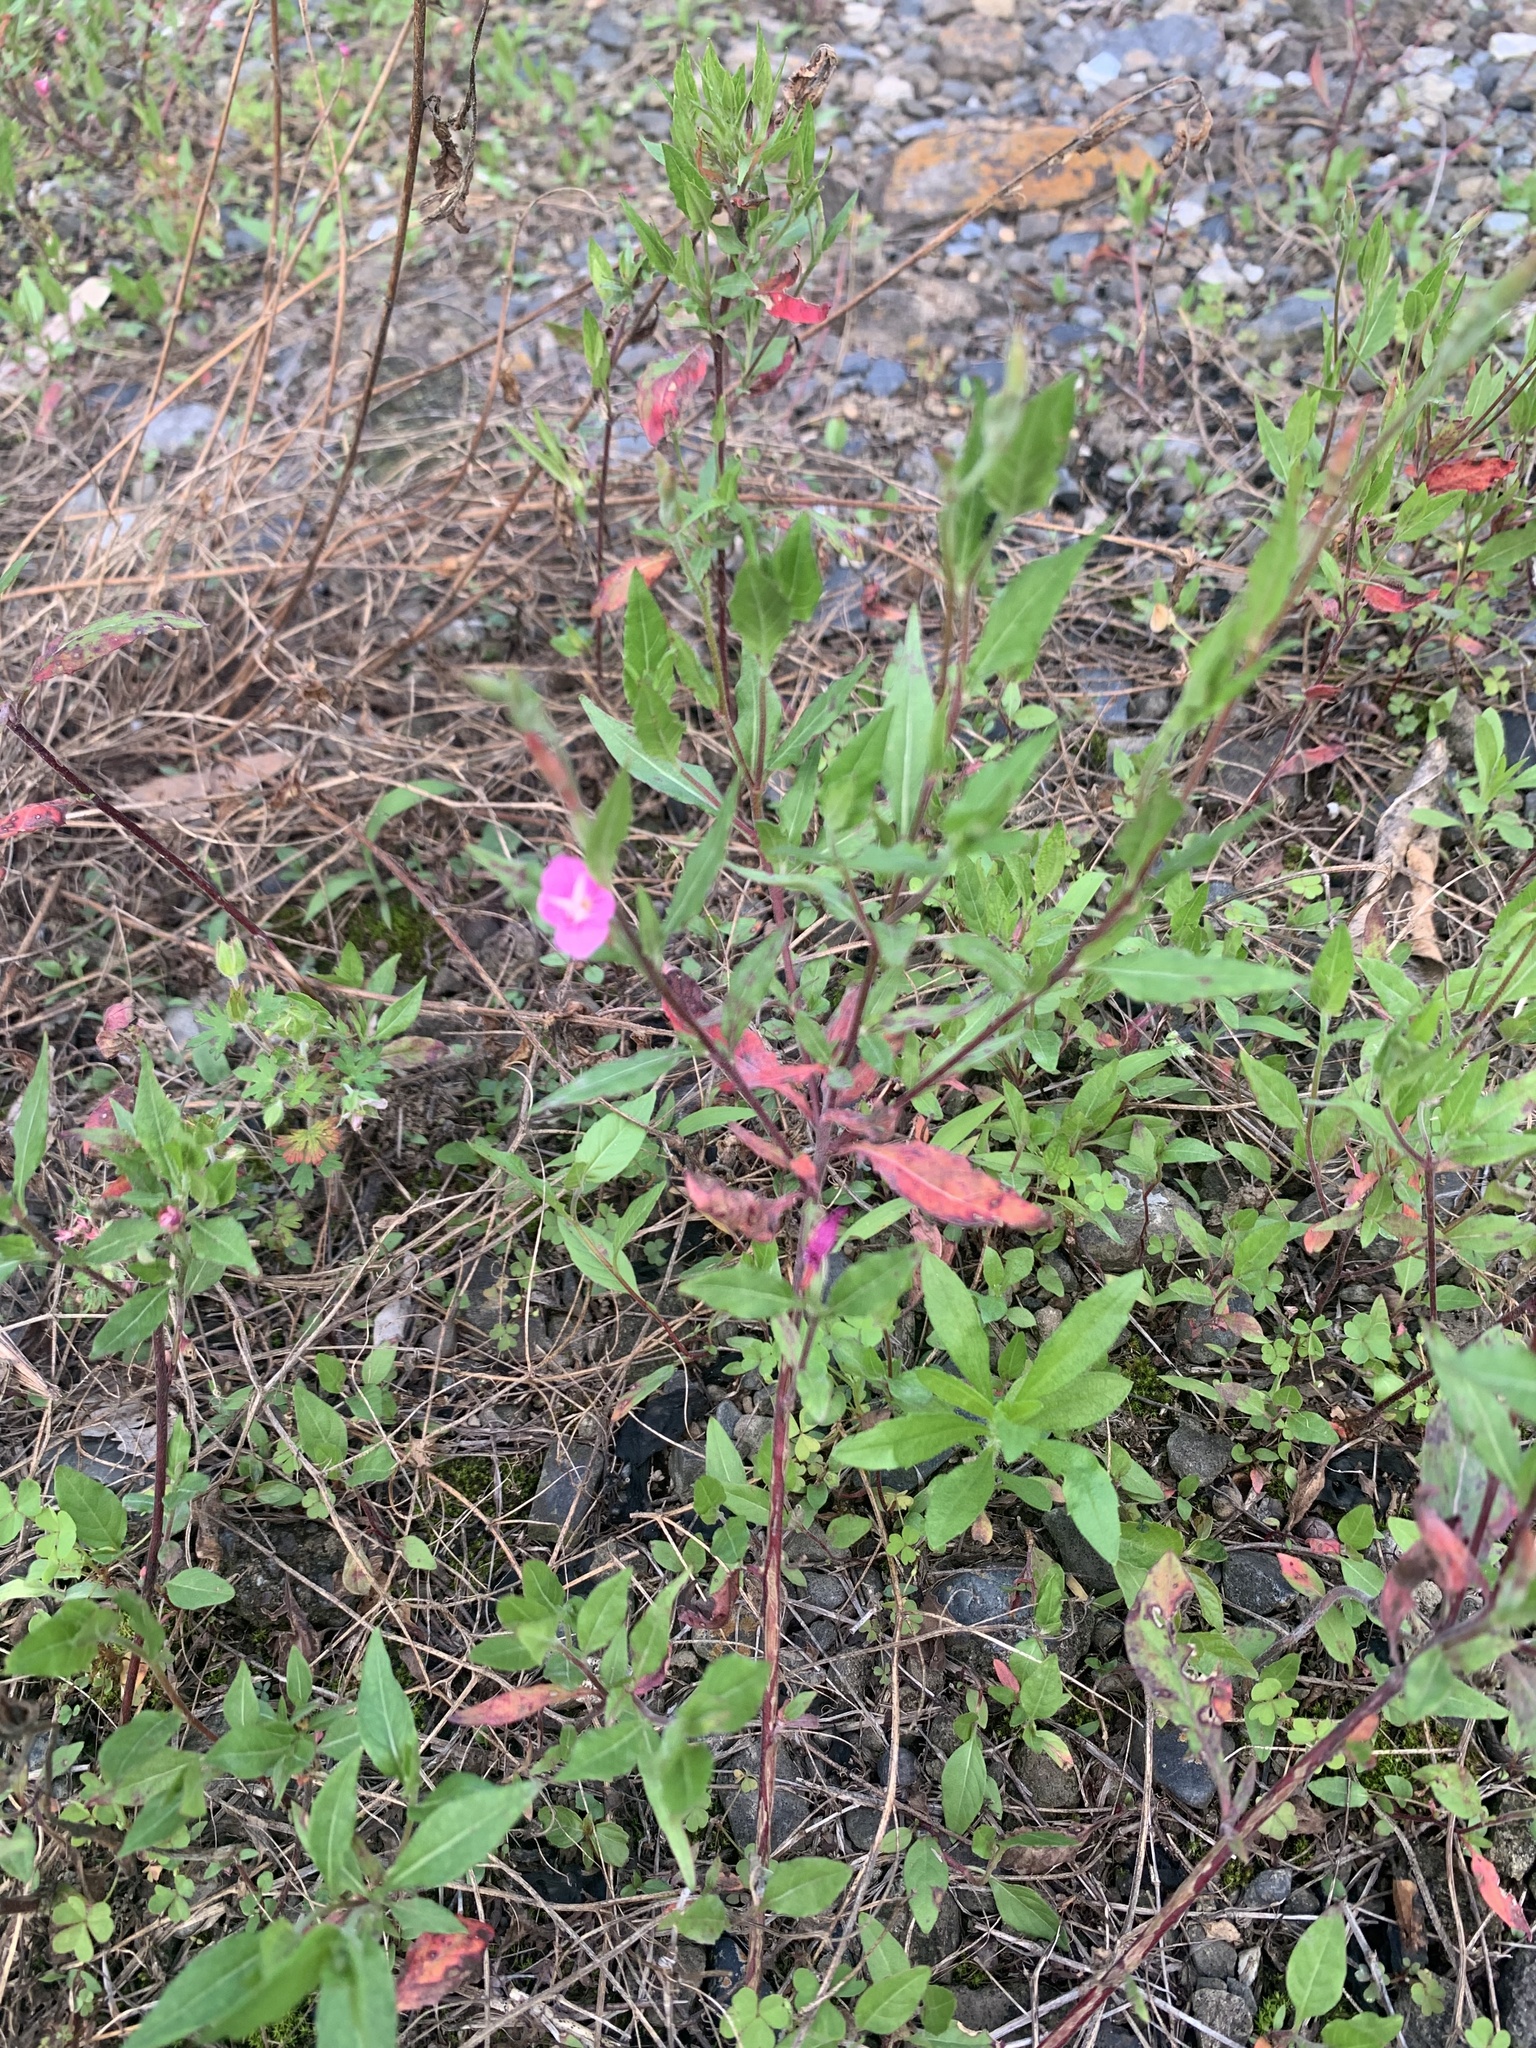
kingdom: Plantae
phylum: Tracheophyta
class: Magnoliopsida
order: Myrtales
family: Onagraceae
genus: Oenothera
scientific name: Oenothera rosea
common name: Rosy evening-primrose
